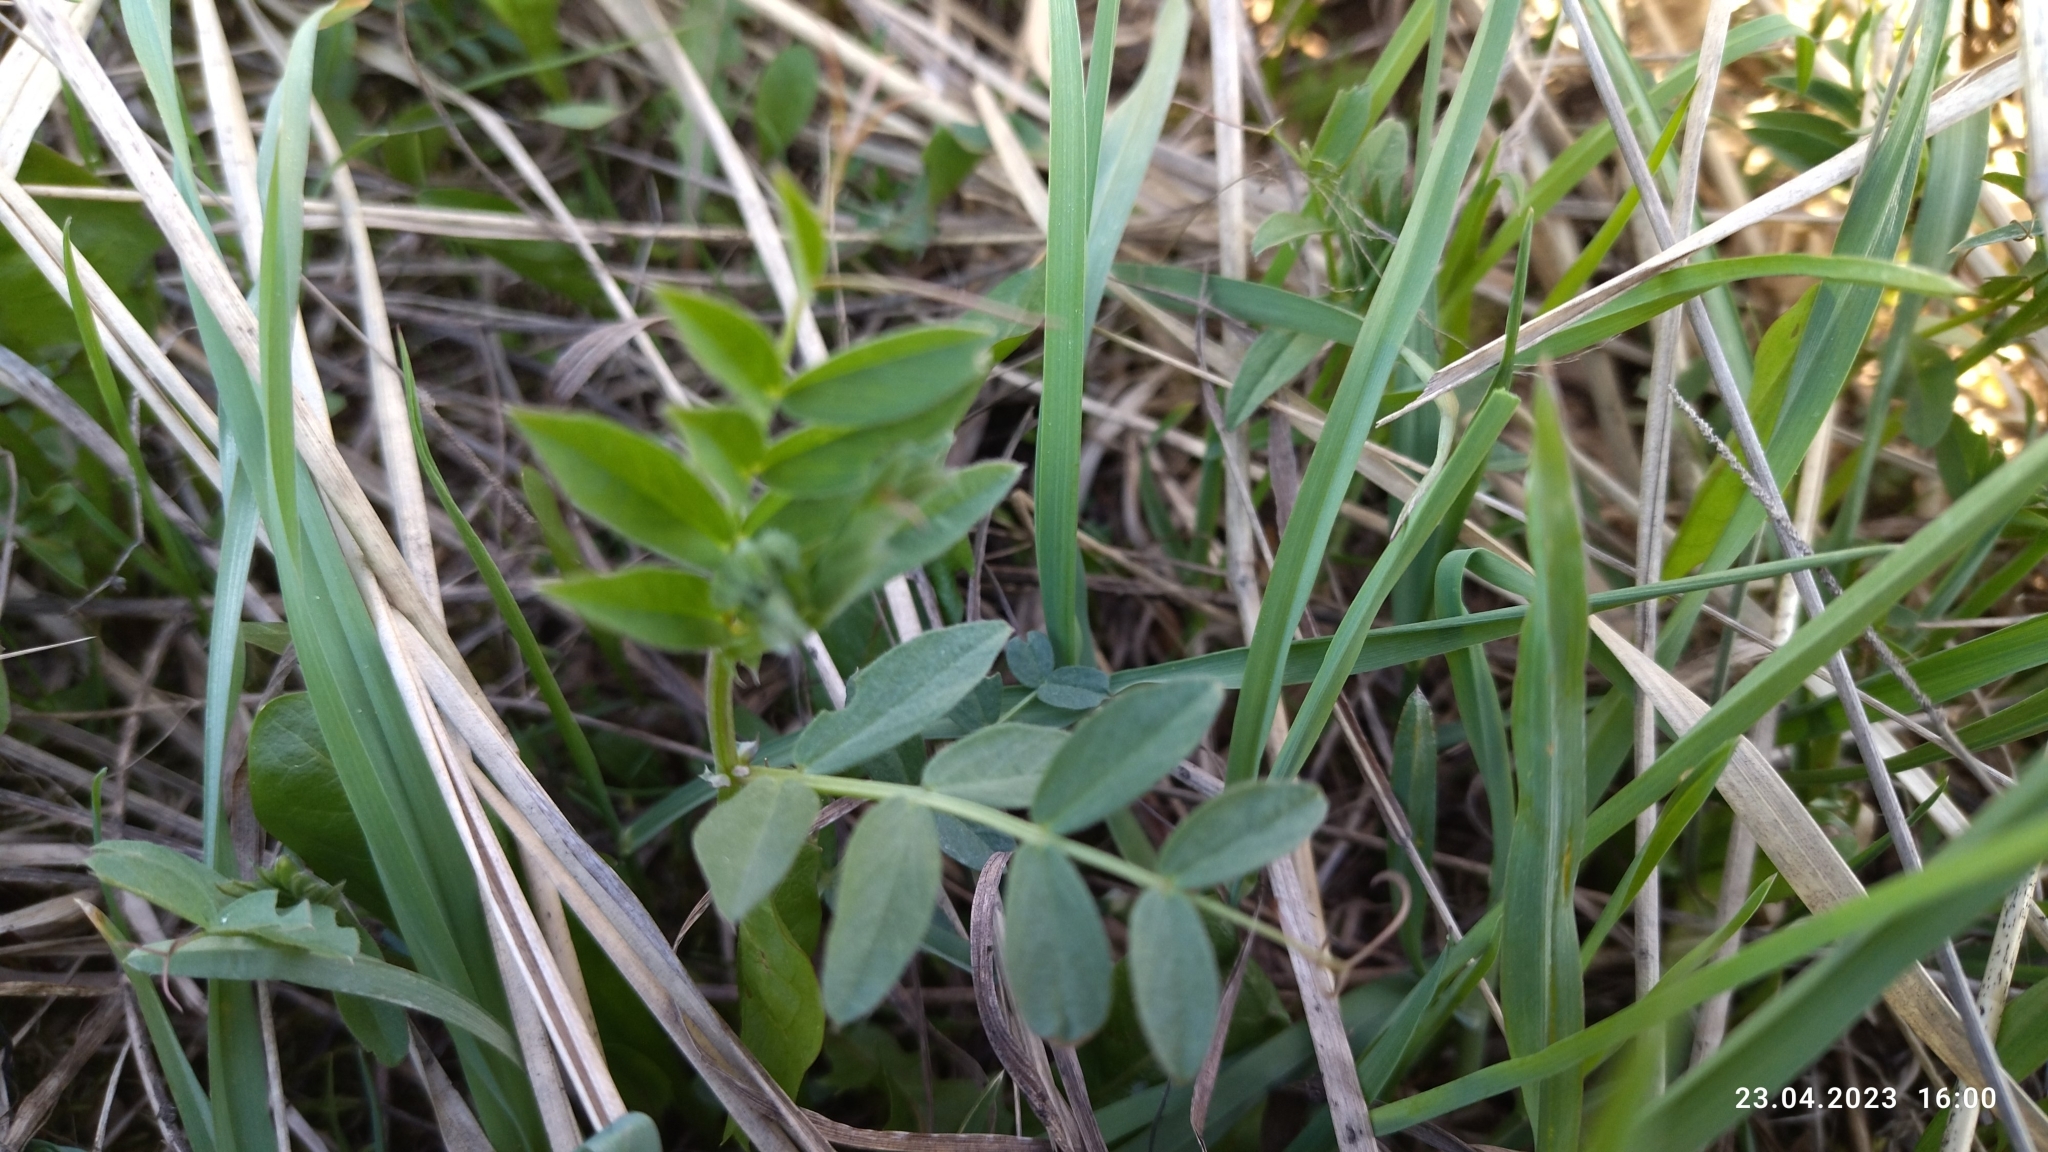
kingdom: Plantae
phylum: Tracheophyta
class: Magnoliopsida
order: Fabales
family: Fabaceae
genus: Vicia
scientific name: Vicia sepium
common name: Bush vetch
